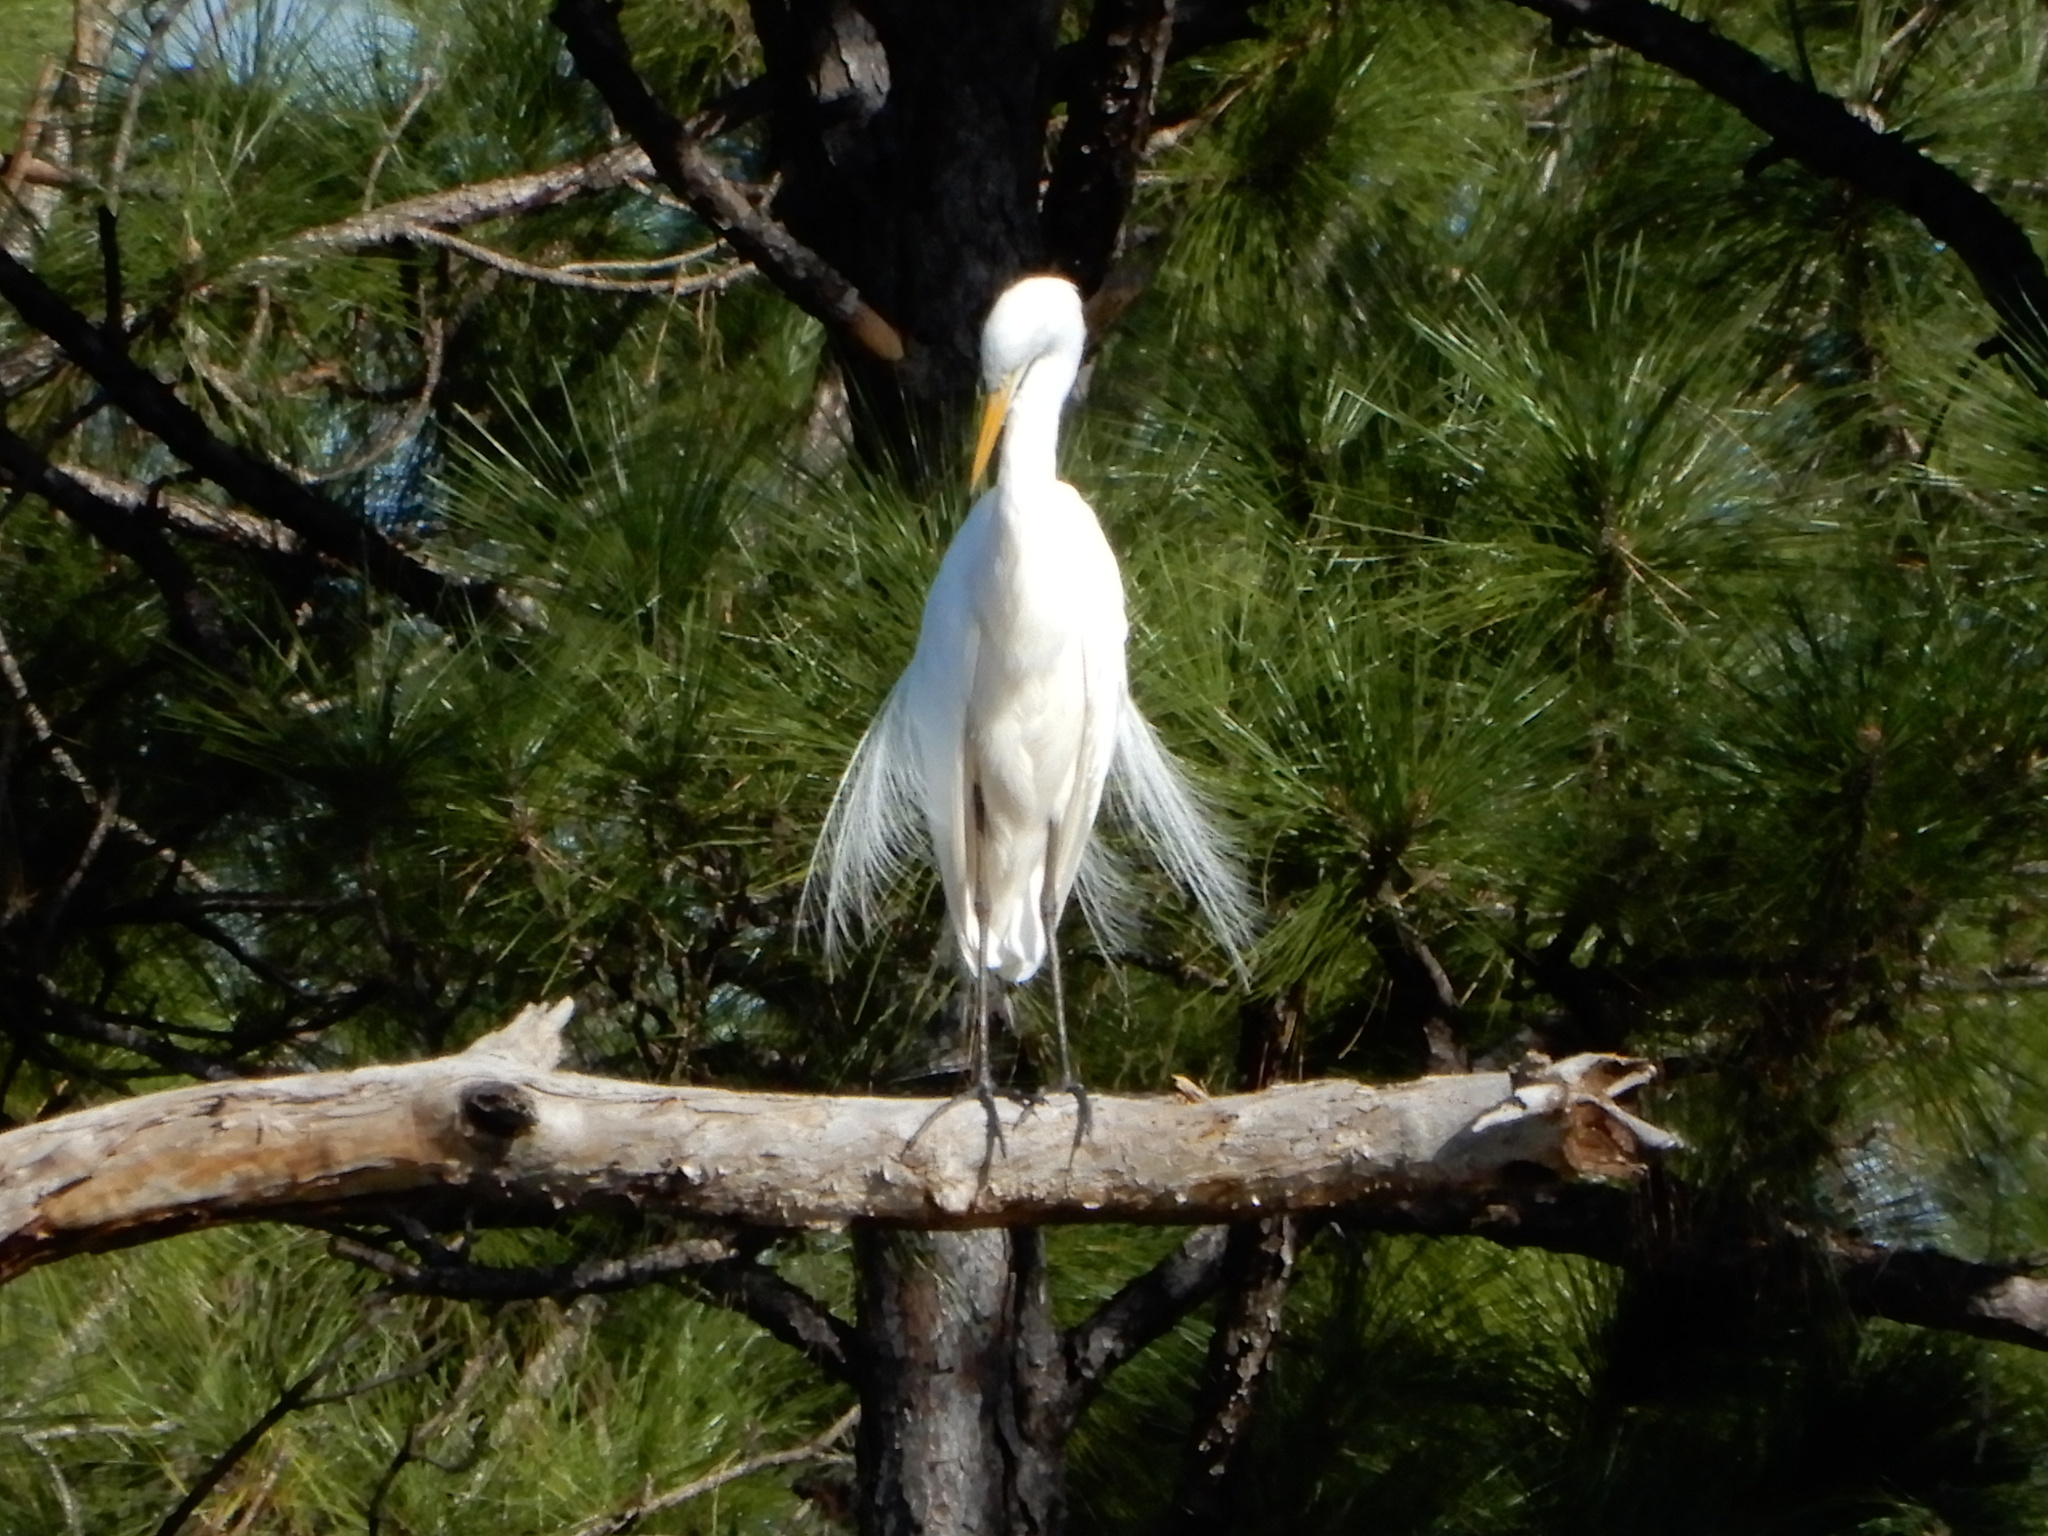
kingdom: Animalia
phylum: Chordata
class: Aves
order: Pelecaniformes
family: Ardeidae
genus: Ardea
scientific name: Ardea alba
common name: Great egret
